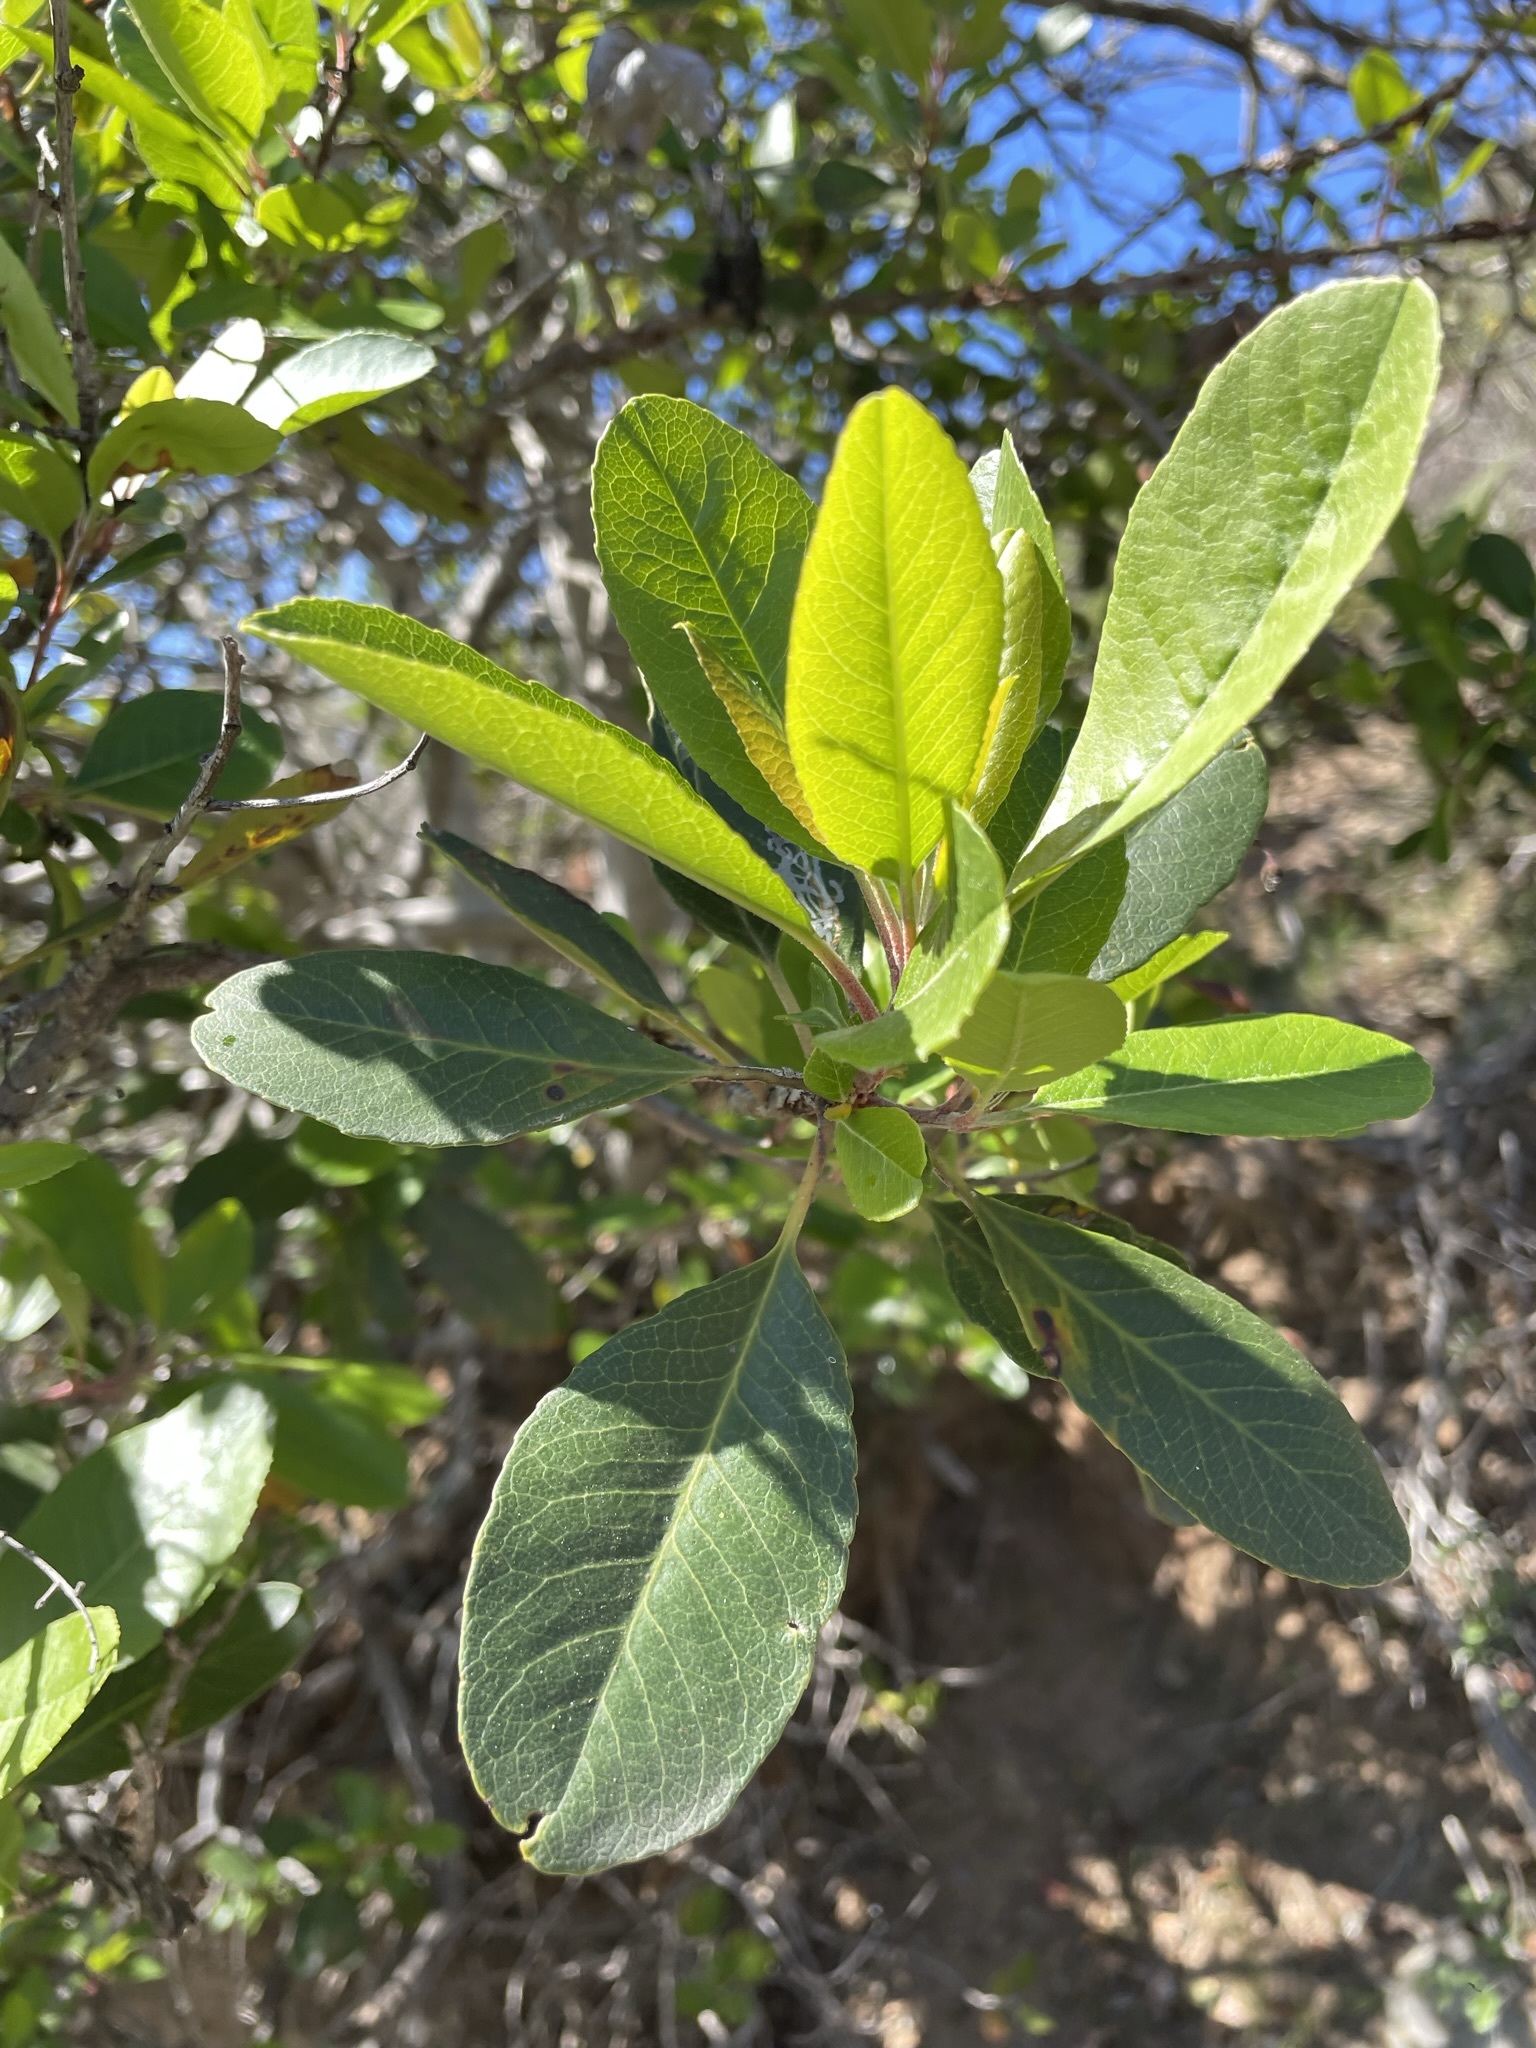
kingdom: Plantae
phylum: Tracheophyta
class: Magnoliopsida
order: Rosales
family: Rosaceae
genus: Heteromeles
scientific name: Heteromeles arbutifolia
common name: California-holly
